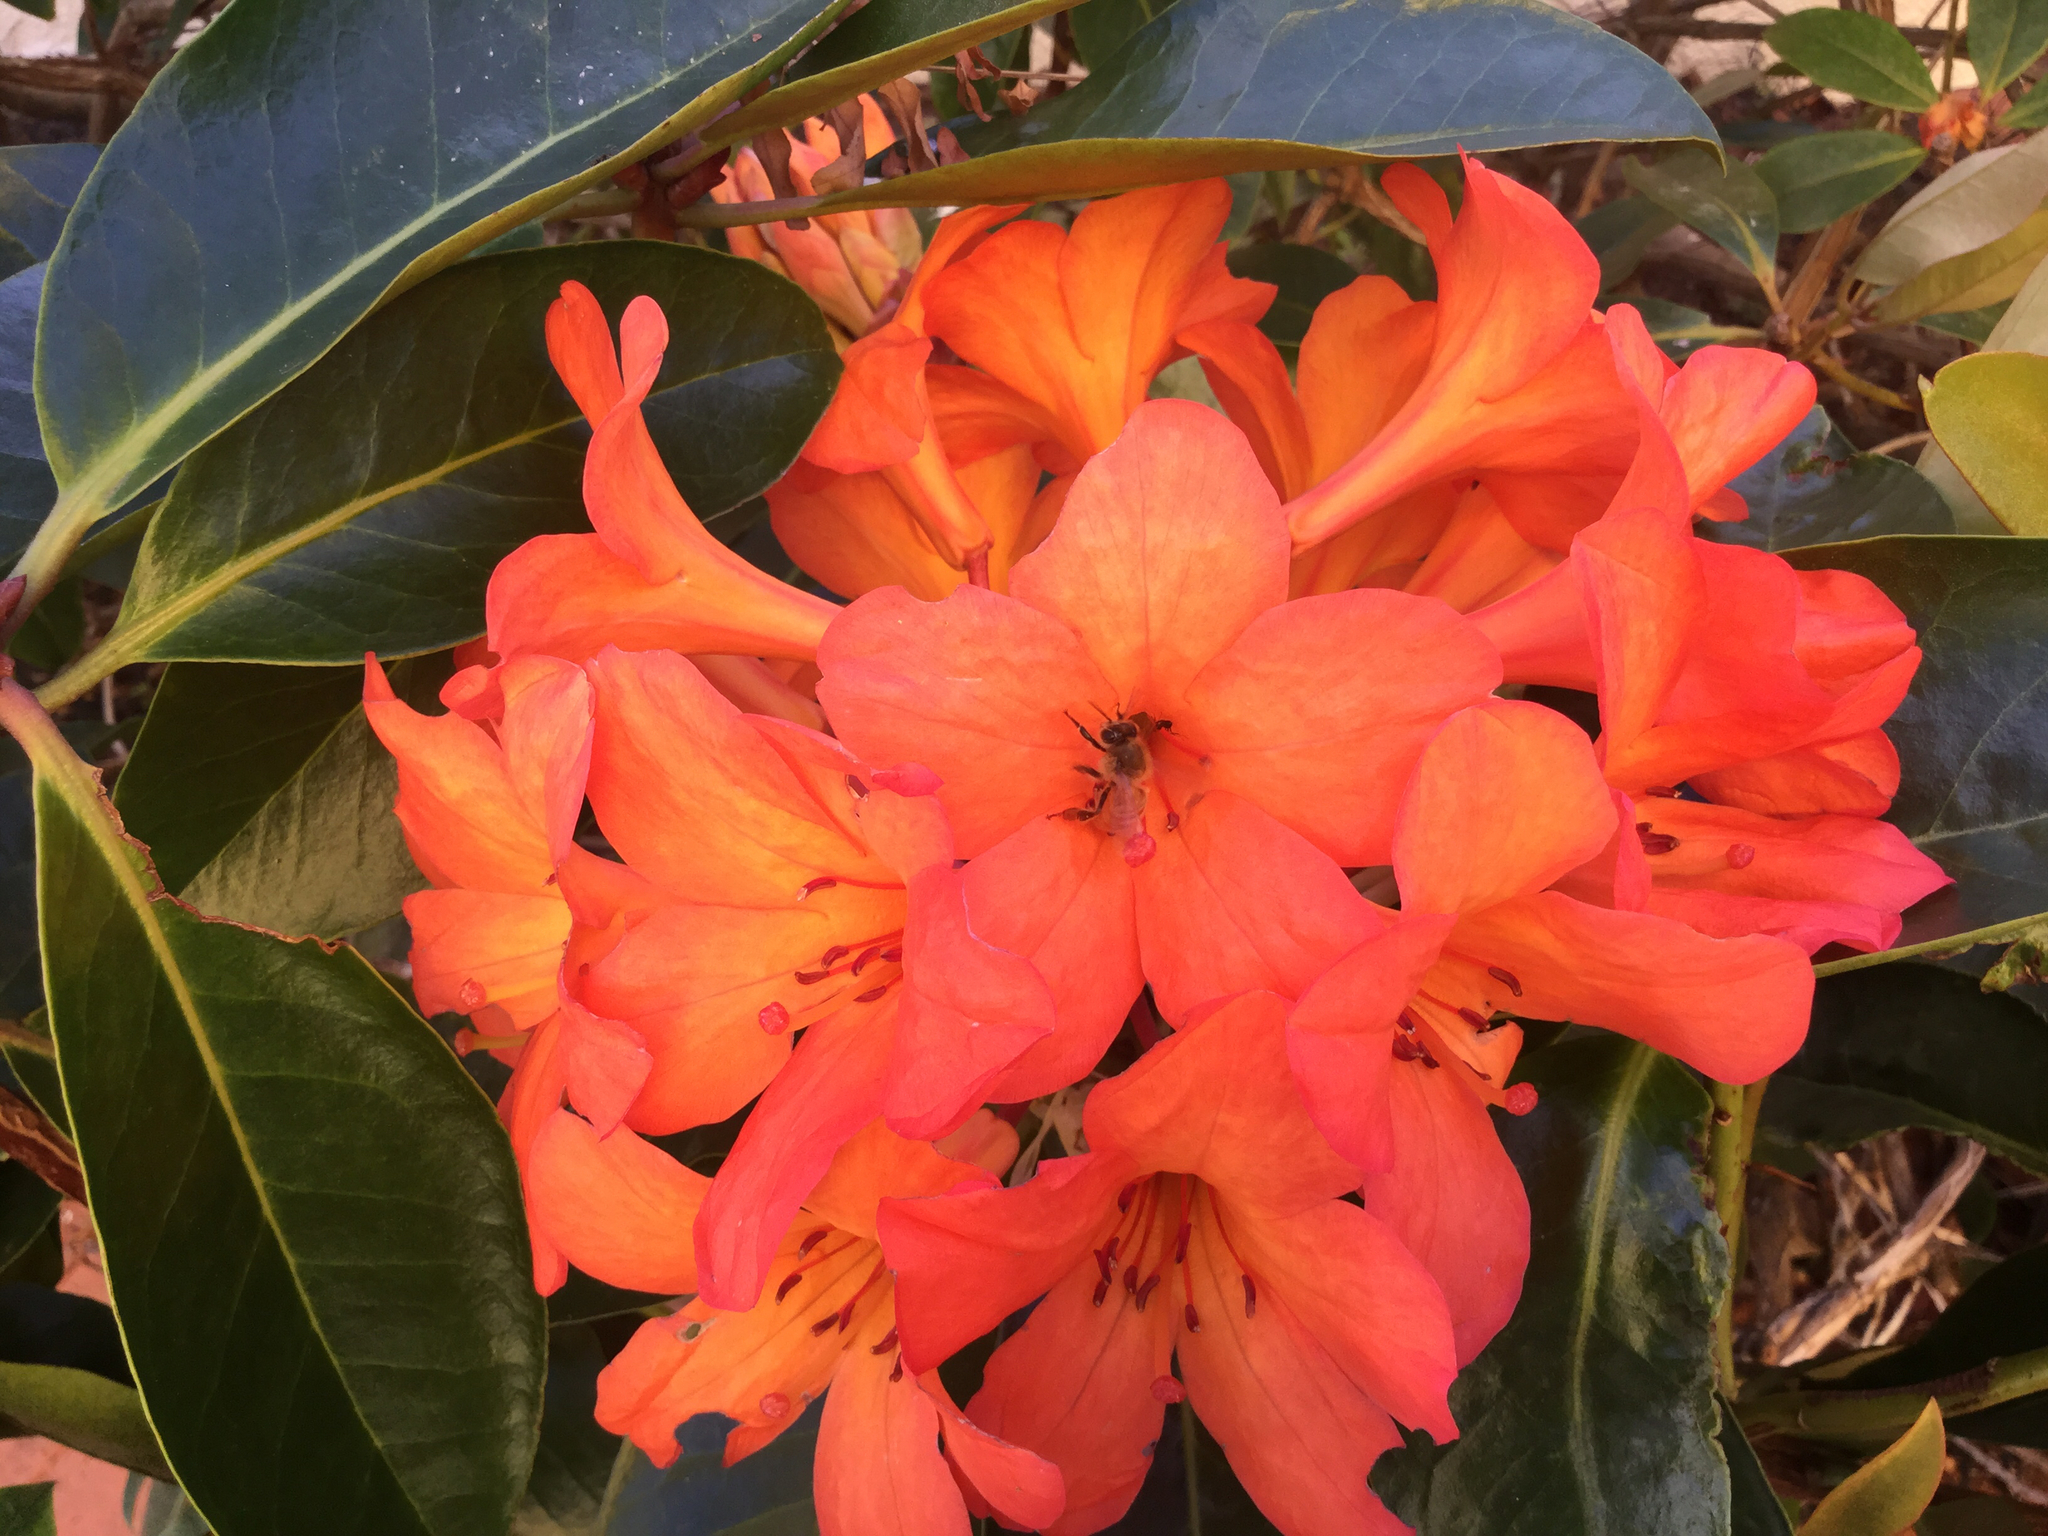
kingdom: Animalia
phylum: Arthropoda
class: Insecta
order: Hymenoptera
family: Apidae
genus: Apis
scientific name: Apis mellifera
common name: Honey bee
